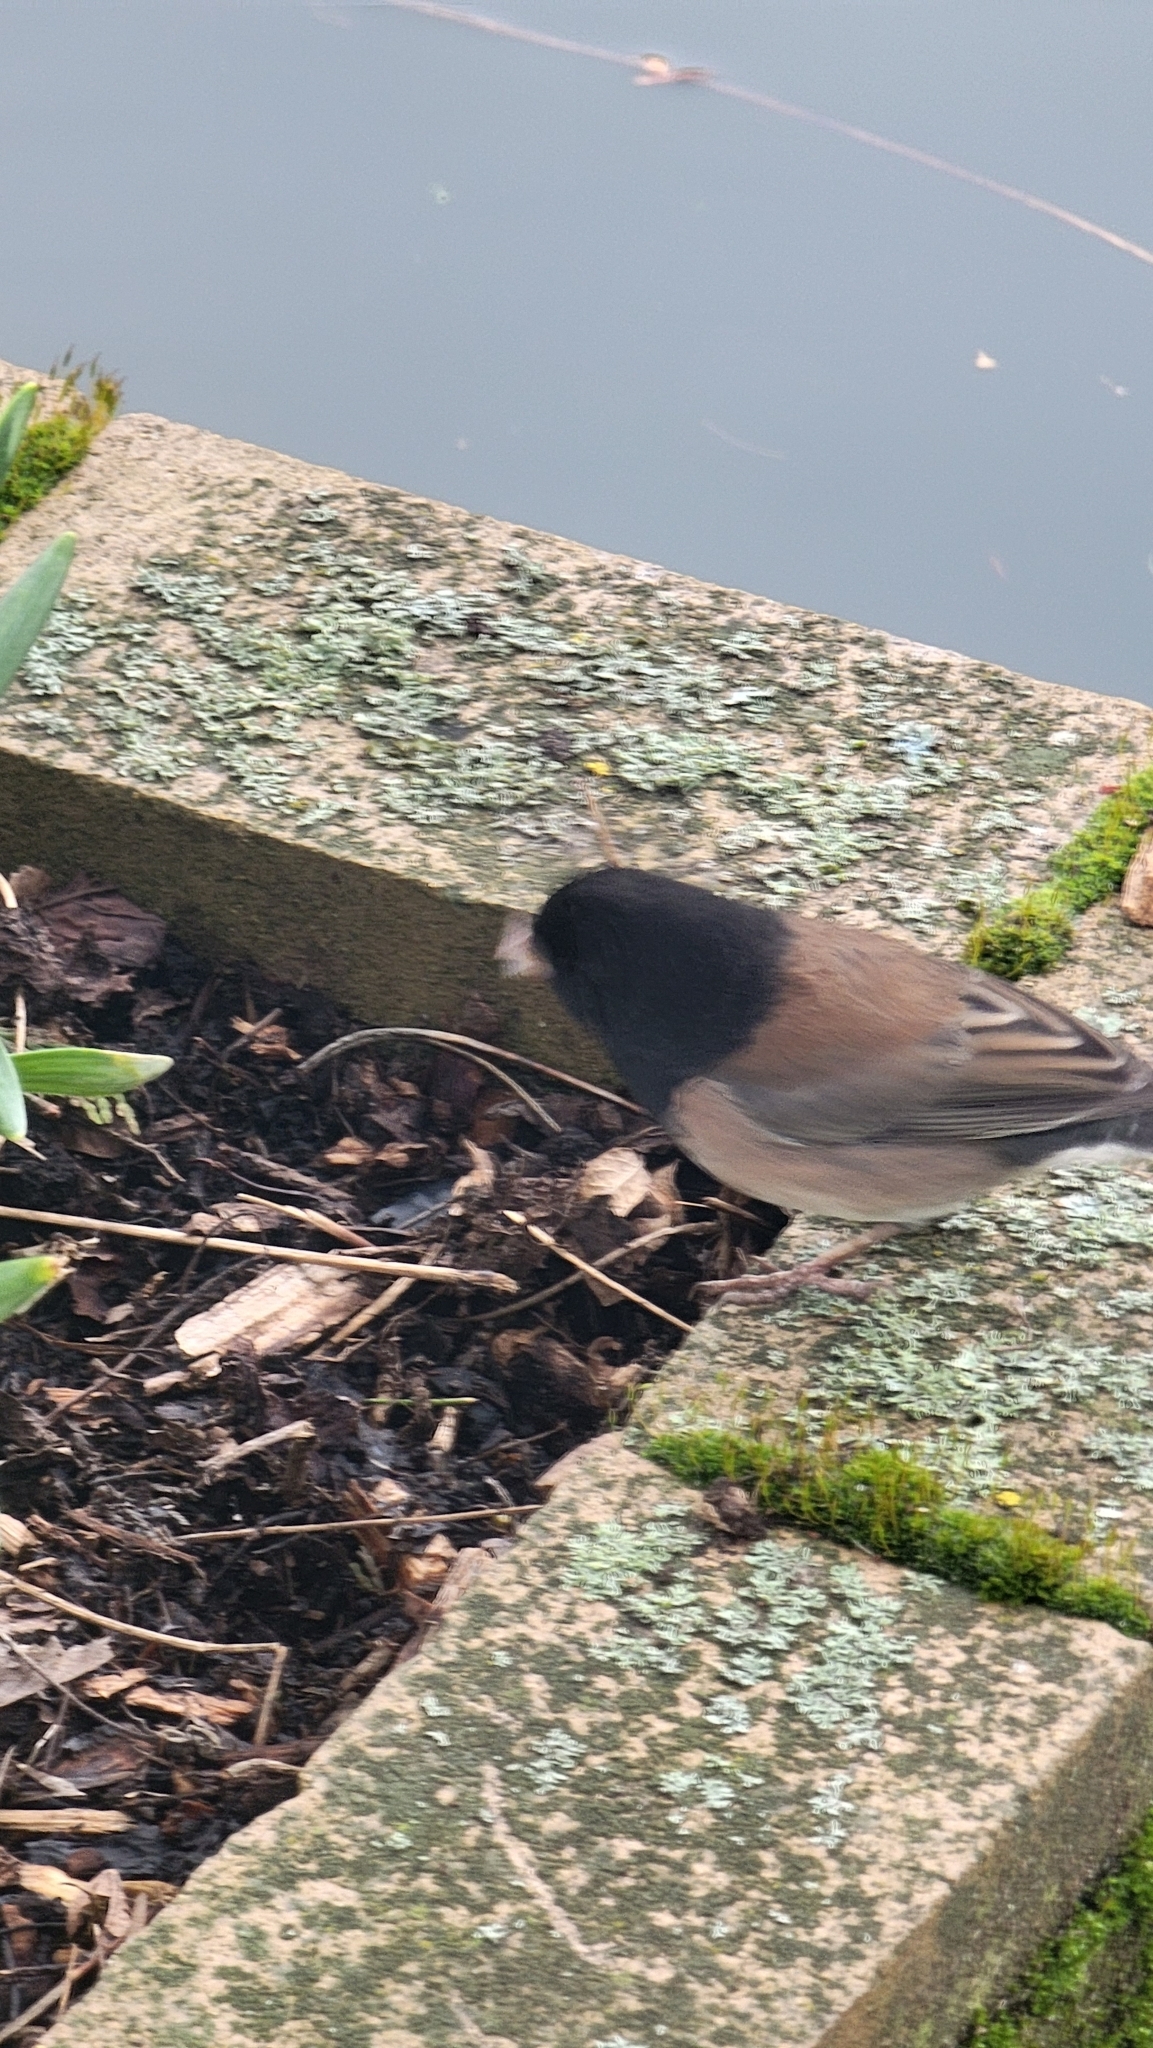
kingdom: Animalia
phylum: Chordata
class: Aves
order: Passeriformes
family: Passerellidae
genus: Junco
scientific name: Junco hyemalis
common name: Dark-eyed junco
